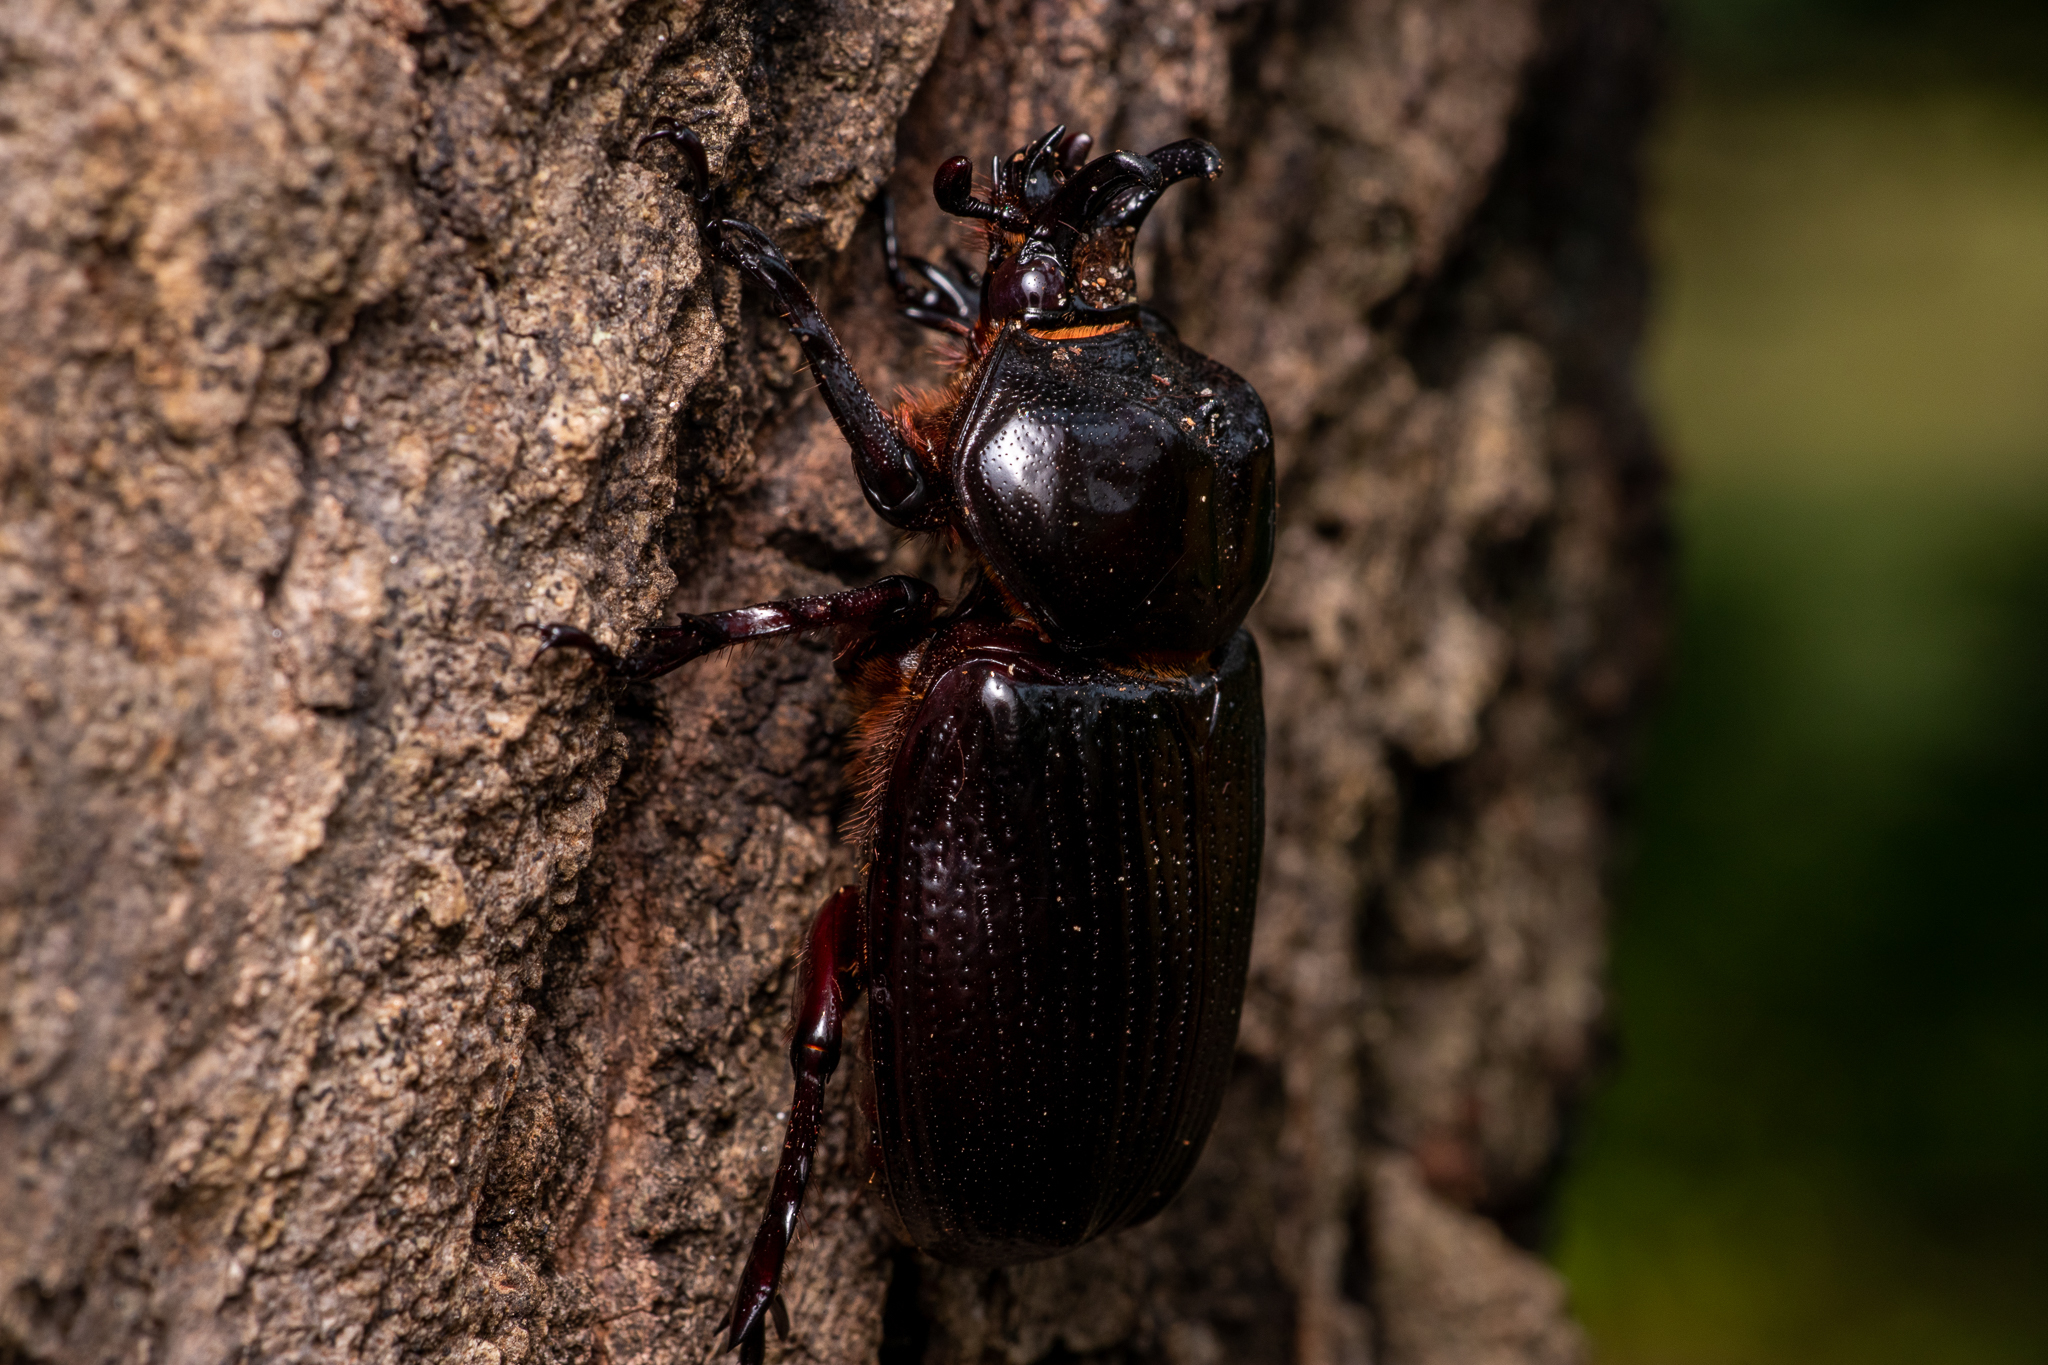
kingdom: Animalia
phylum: Arthropoda
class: Insecta
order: Coleoptera
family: Scarabaeidae
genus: Phileurus
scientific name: Phileurus truncatus
